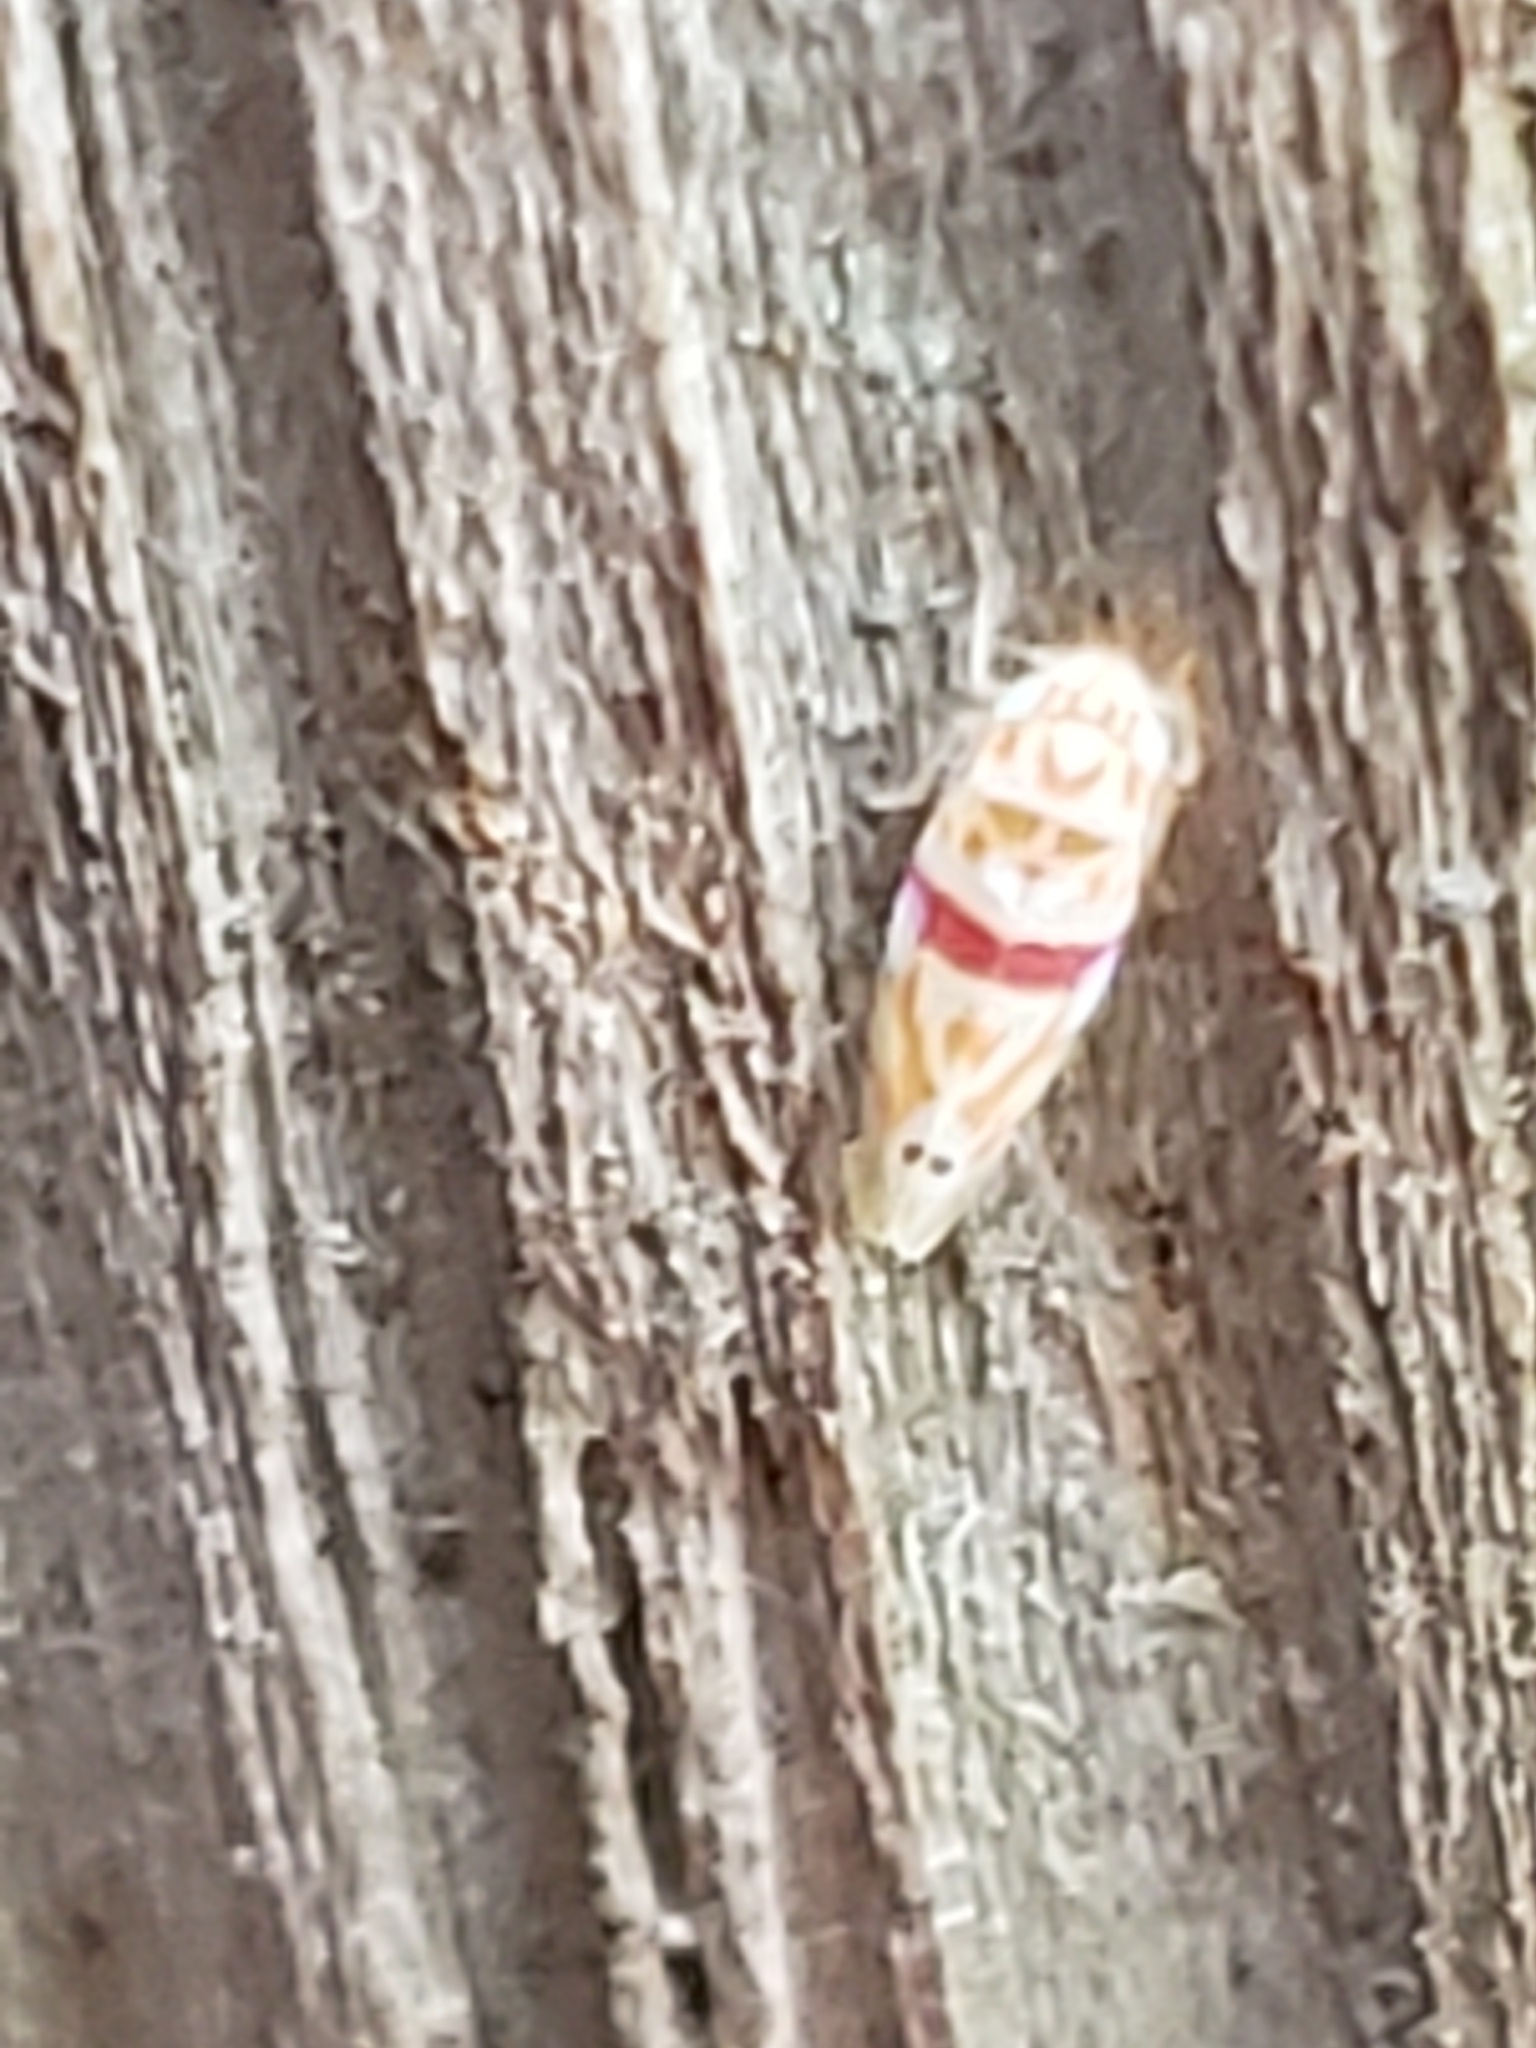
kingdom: Animalia
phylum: Arthropoda
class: Insecta
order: Hemiptera
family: Cicadellidae
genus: Eratoneura
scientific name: Eratoneura era
